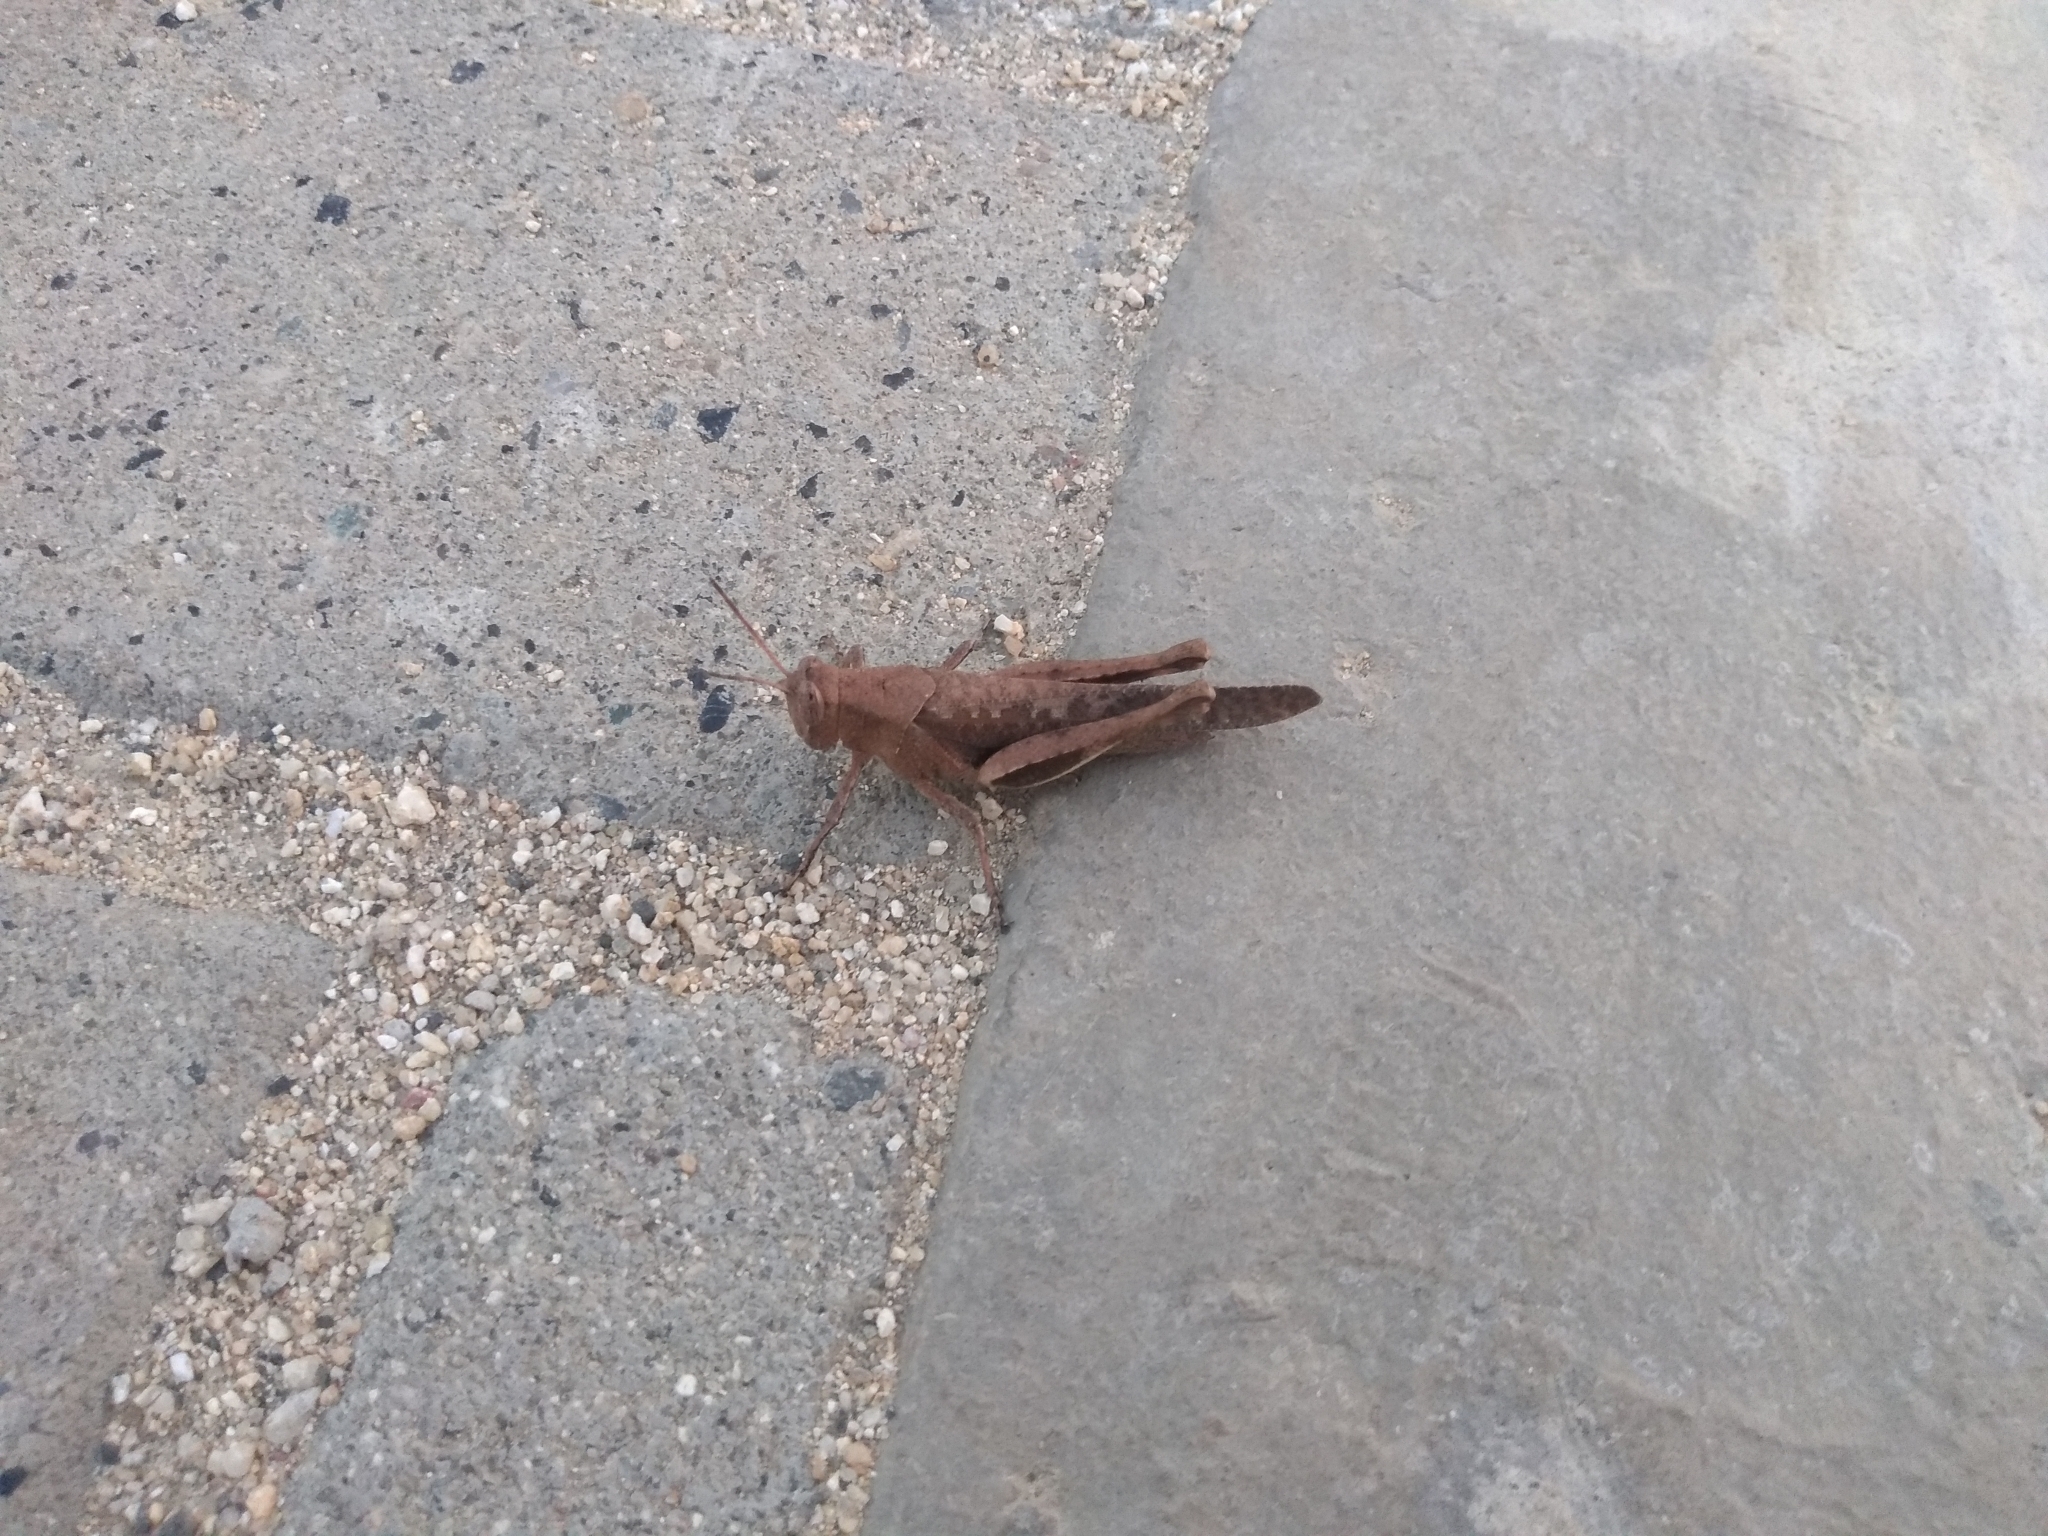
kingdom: Animalia
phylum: Arthropoda
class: Insecta
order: Orthoptera
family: Acrididae
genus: Abracris
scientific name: Abracris flavolineata
